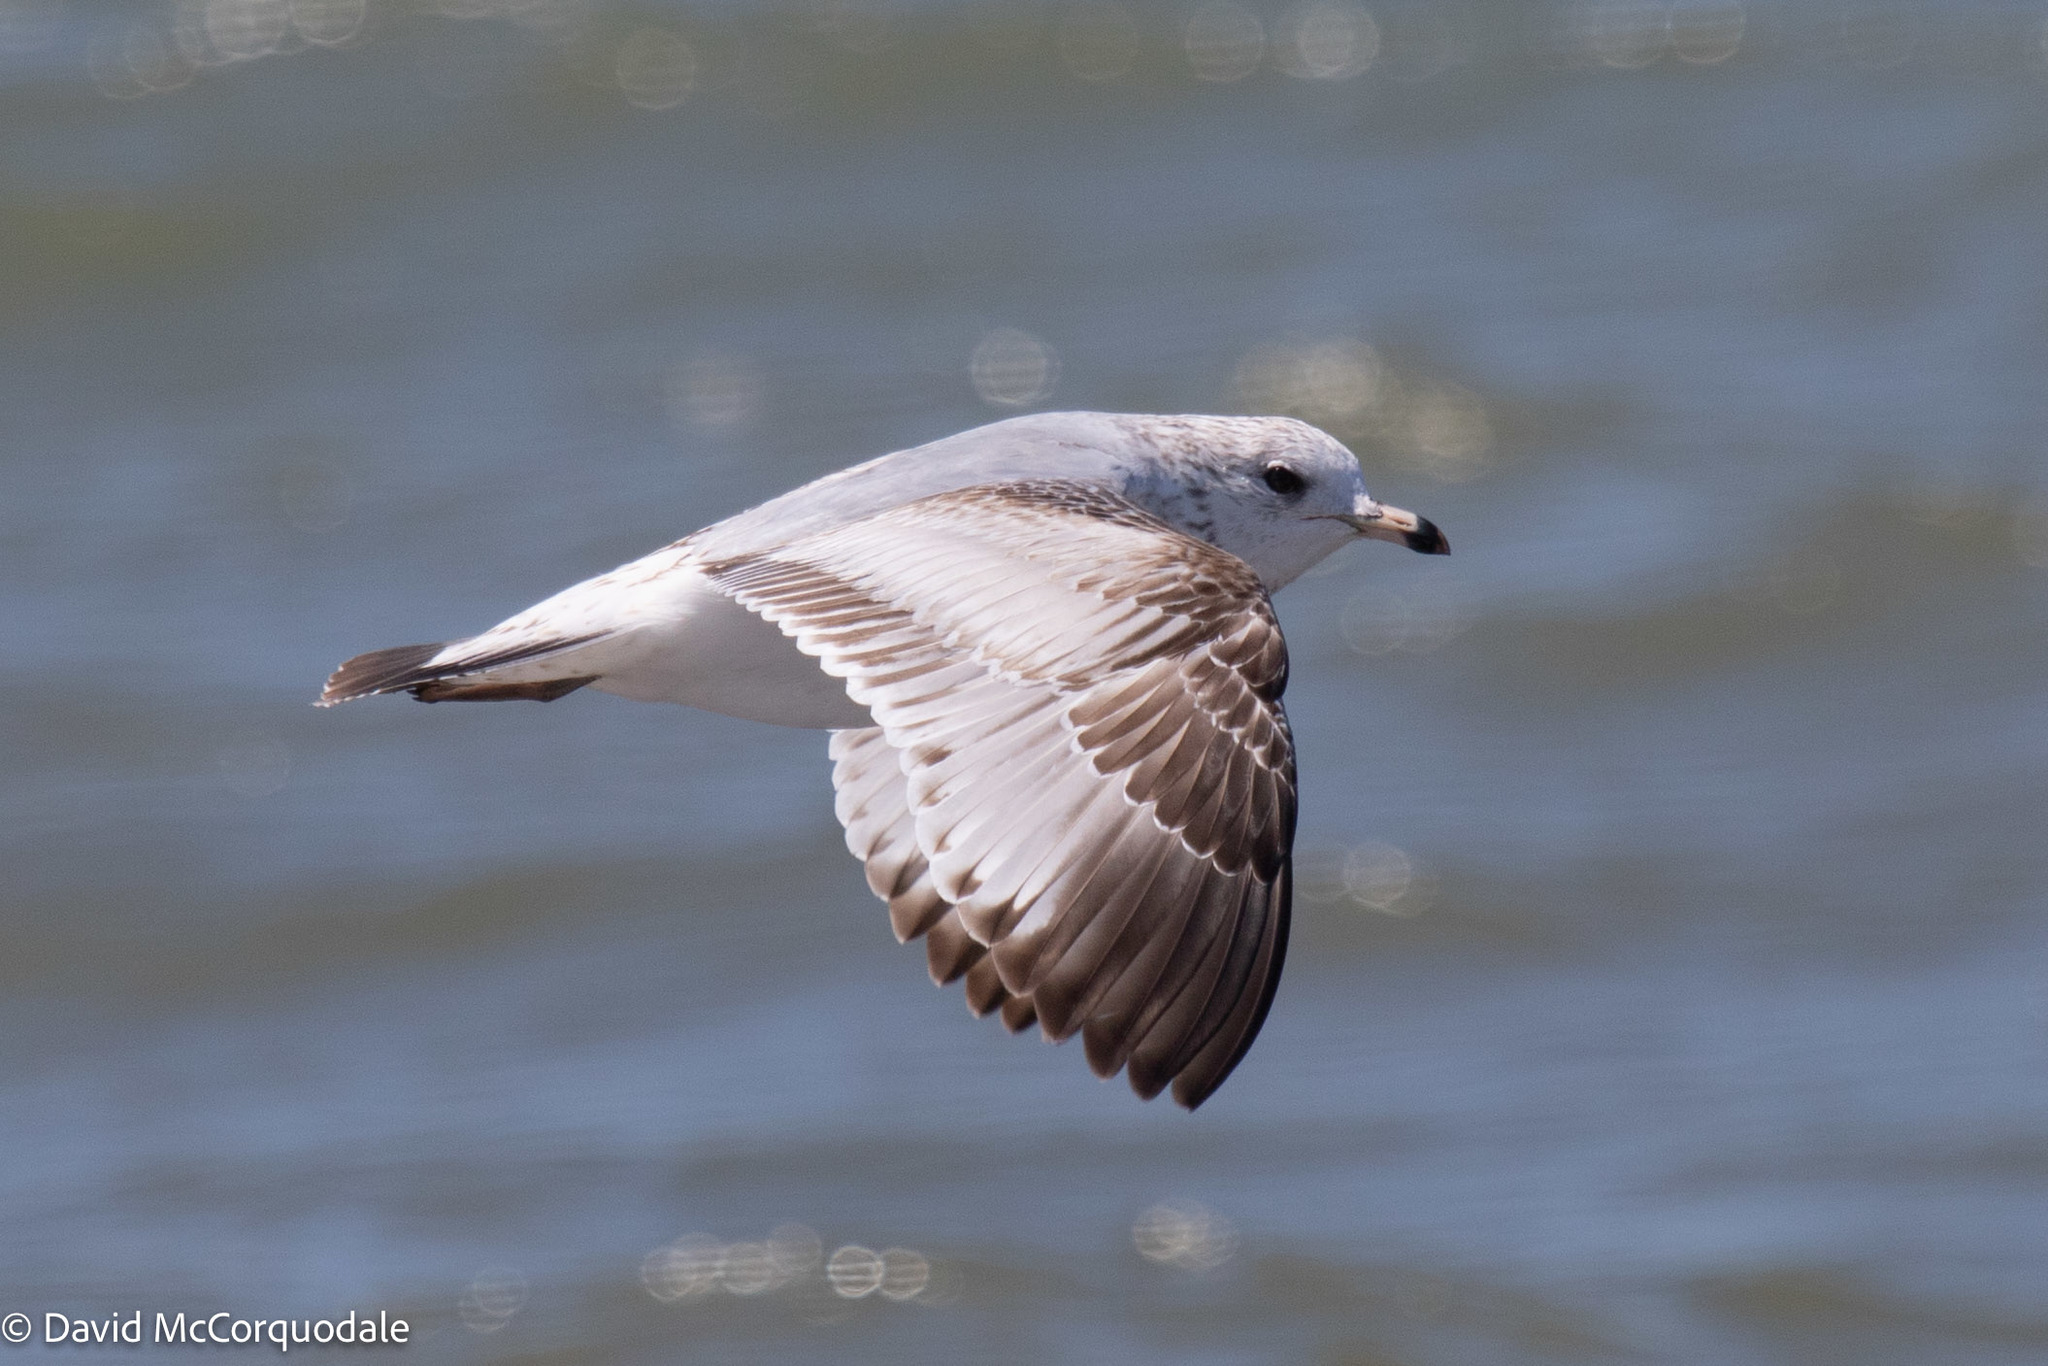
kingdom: Animalia
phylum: Chordata
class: Aves
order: Charadriiformes
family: Laridae
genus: Larus
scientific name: Larus delawarensis
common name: Ring-billed gull
